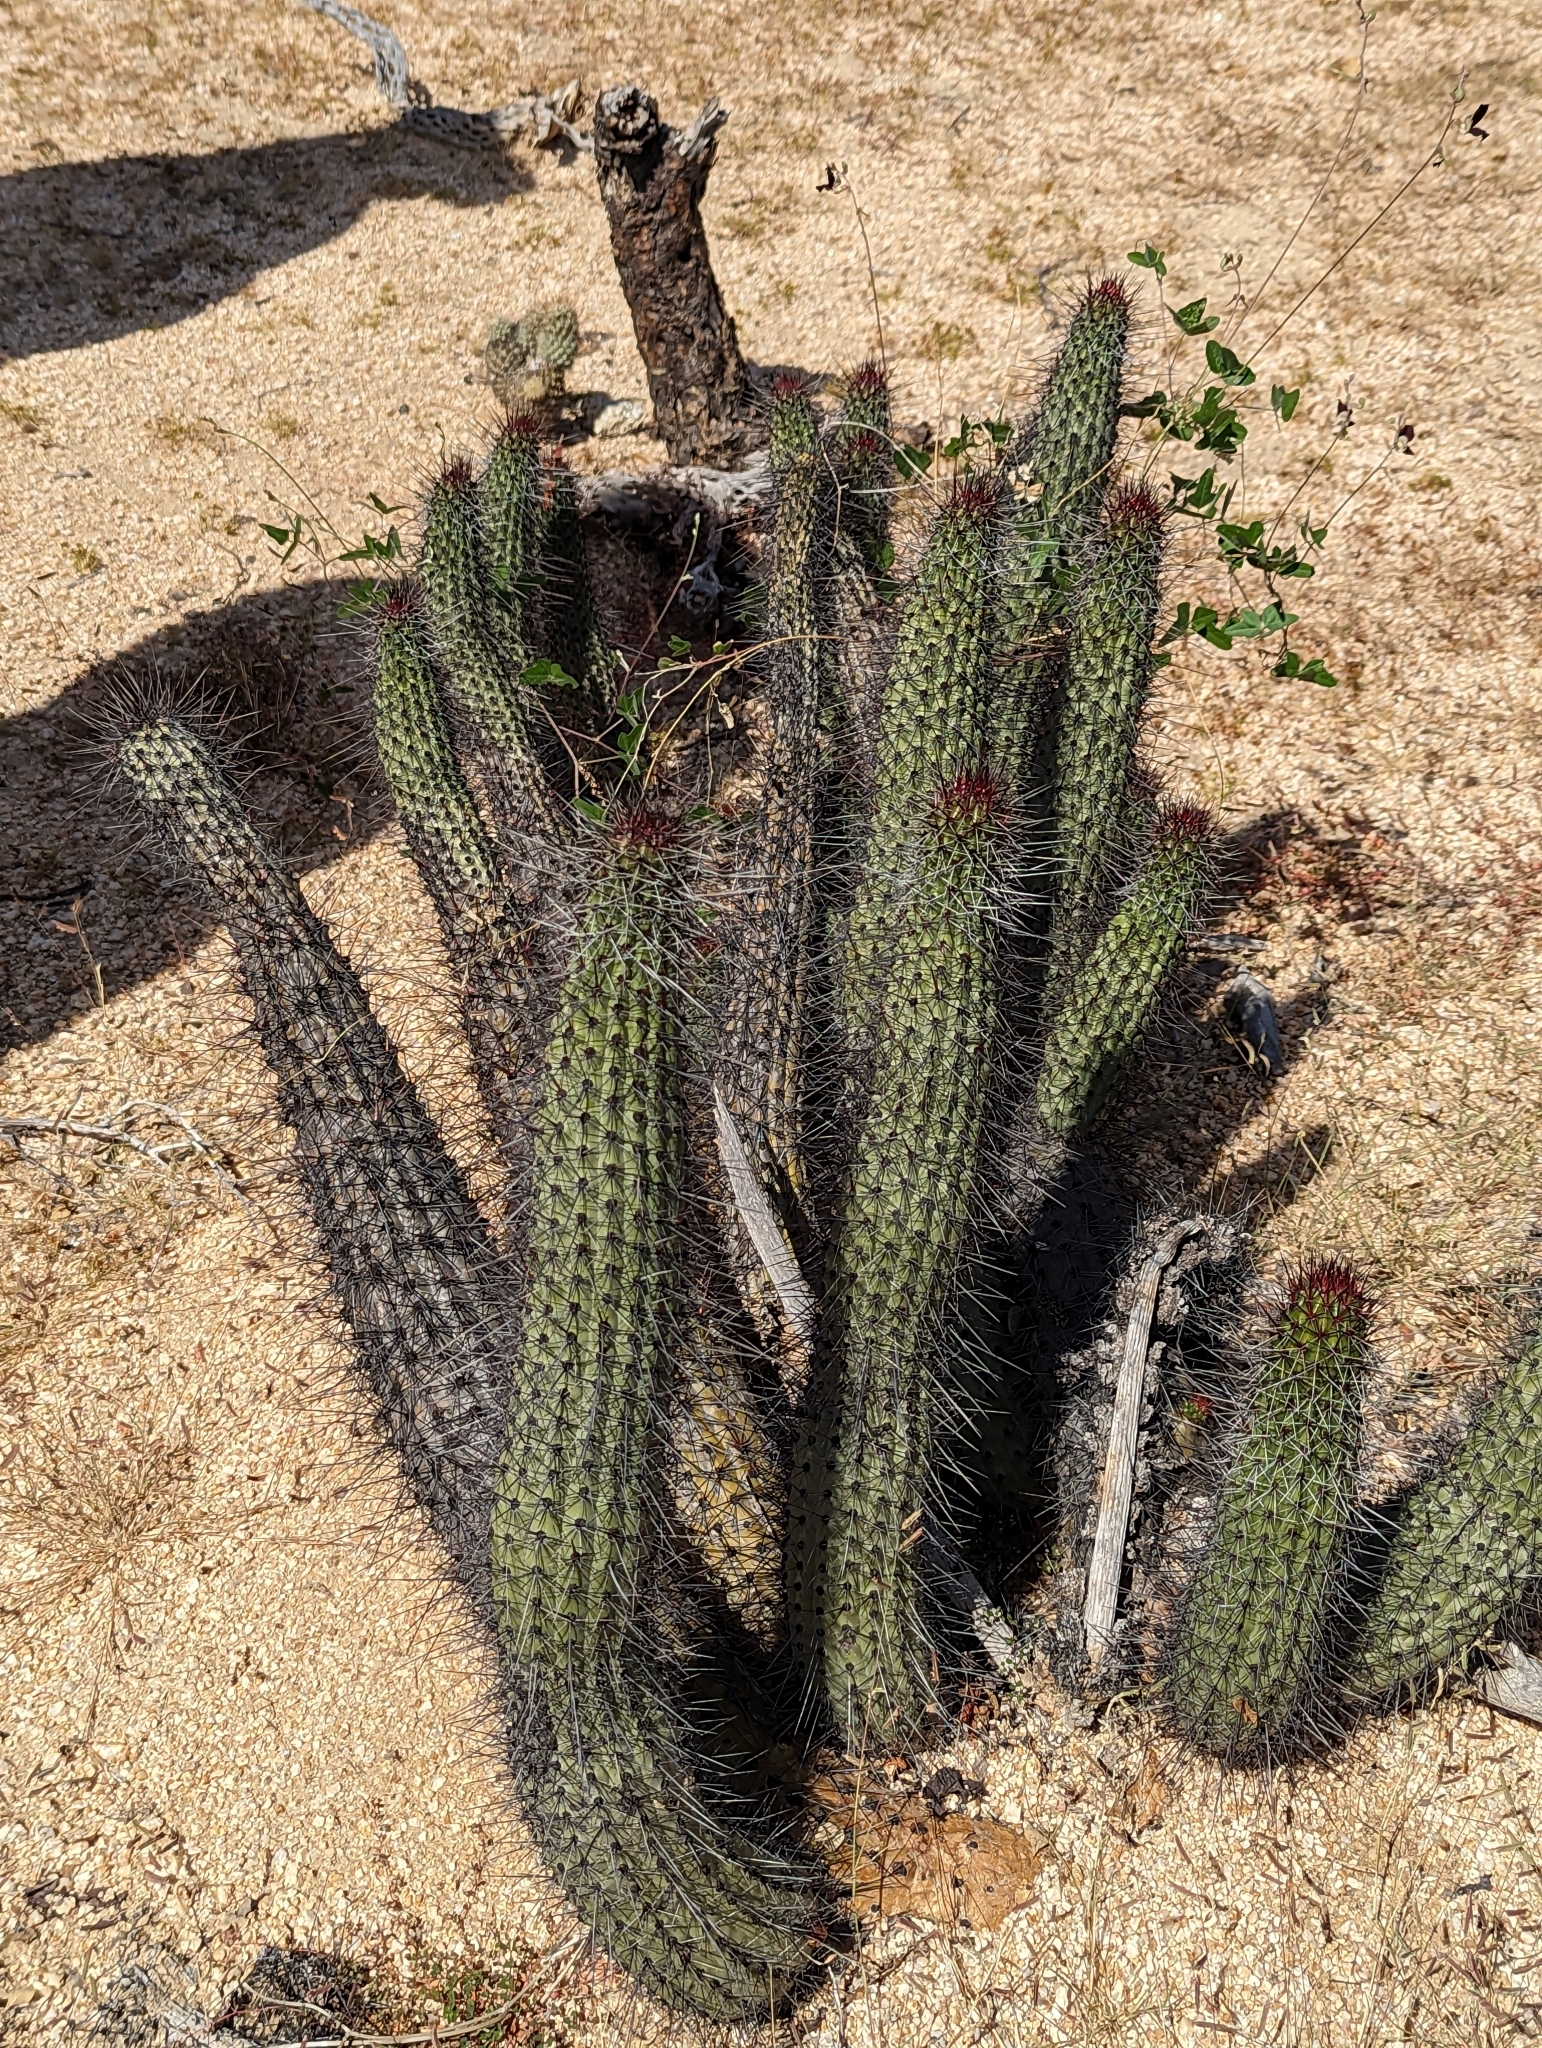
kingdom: Plantae
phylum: Tracheophyta
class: Magnoliopsida
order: Caryophyllales
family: Cactaceae
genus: Stenocereus
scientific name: Stenocereus thurberi
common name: Organ pipe cactus
